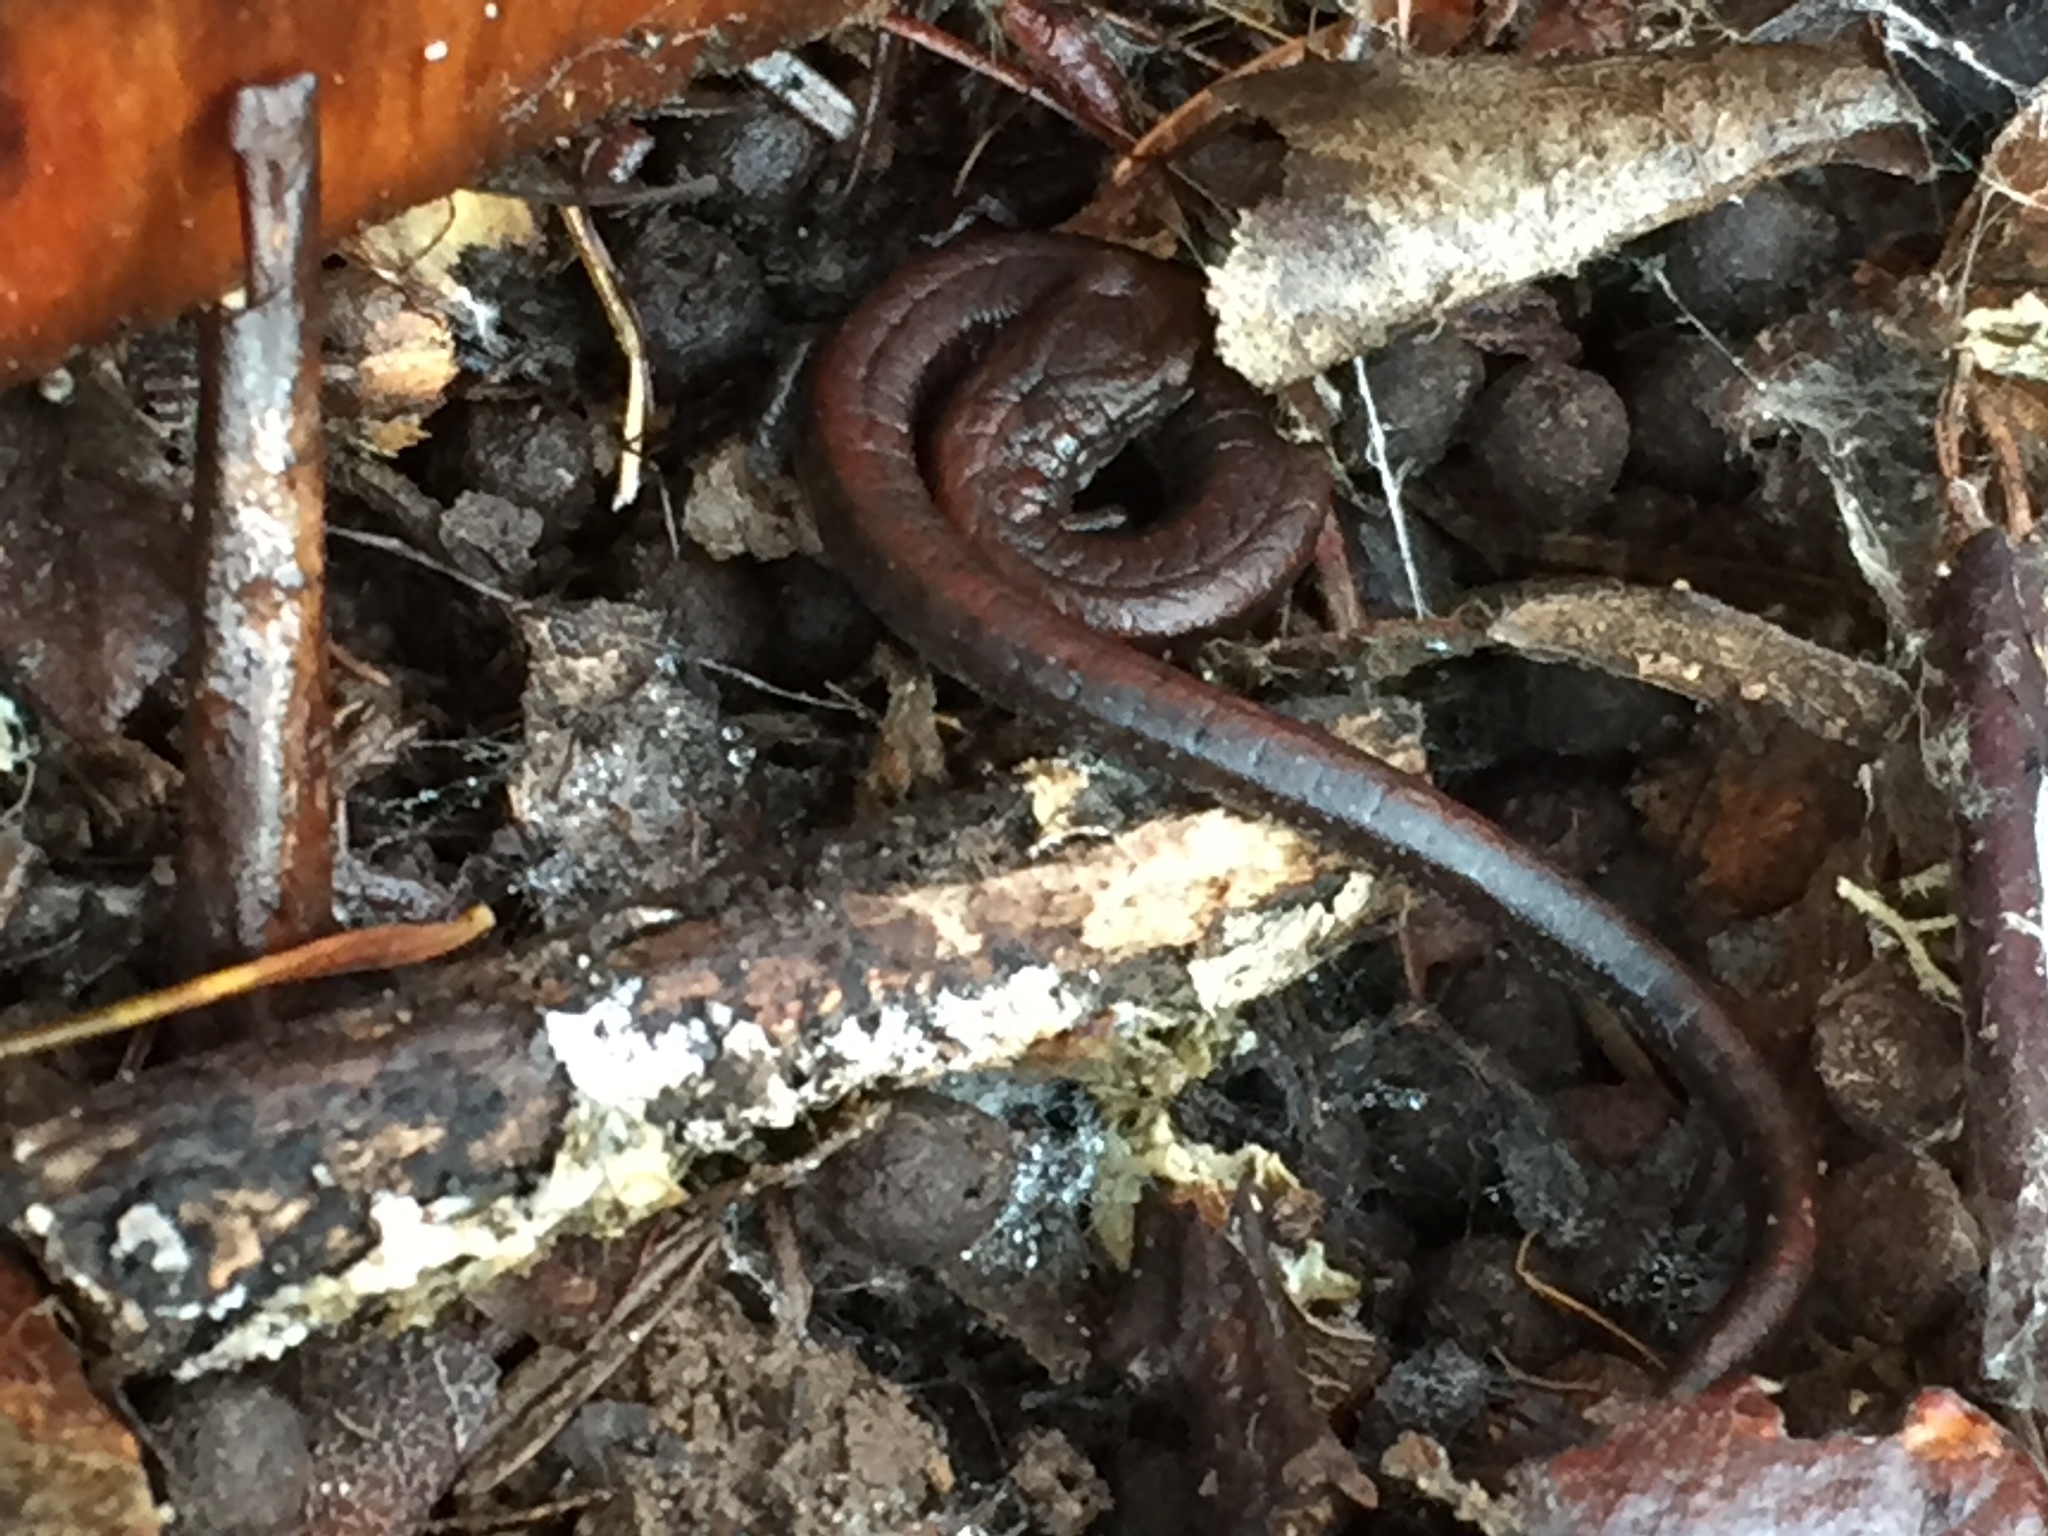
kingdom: Animalia
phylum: Chordata
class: Amphibia
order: Caudata
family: Plethodontidae
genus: Batrachoseps
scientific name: Batrachoseps attenuatus
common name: California slender salamander
